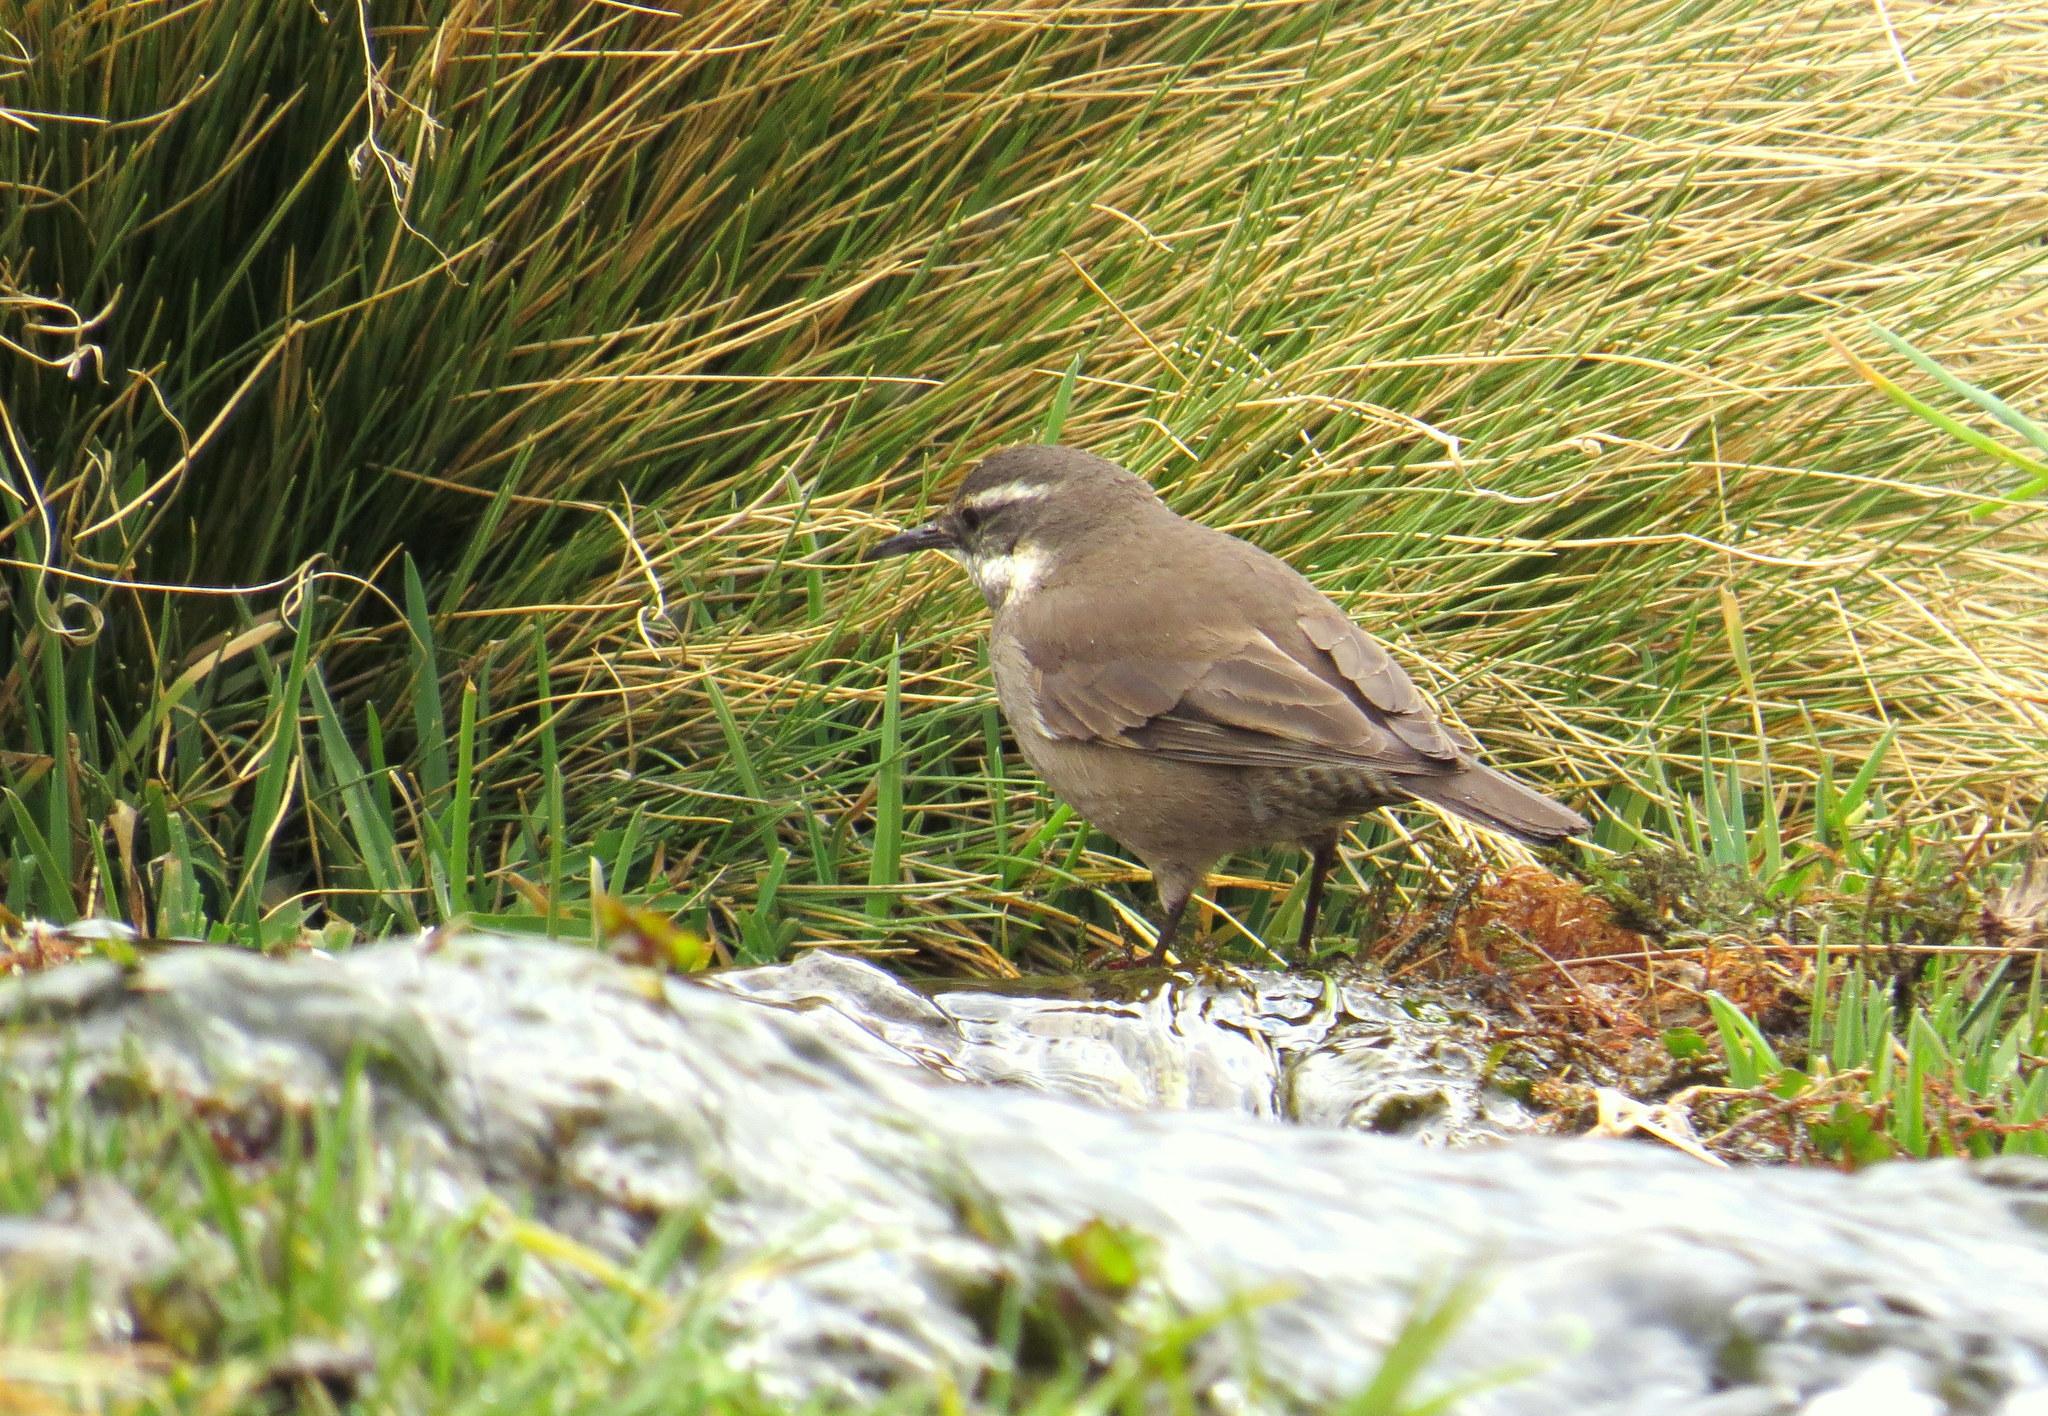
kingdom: Animalia
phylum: Chordata
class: Aves
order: Passeriformes
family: Furnariidae
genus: Cinclodes
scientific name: Cinclodes oustaleti
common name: Grey-flanked cinclodes
